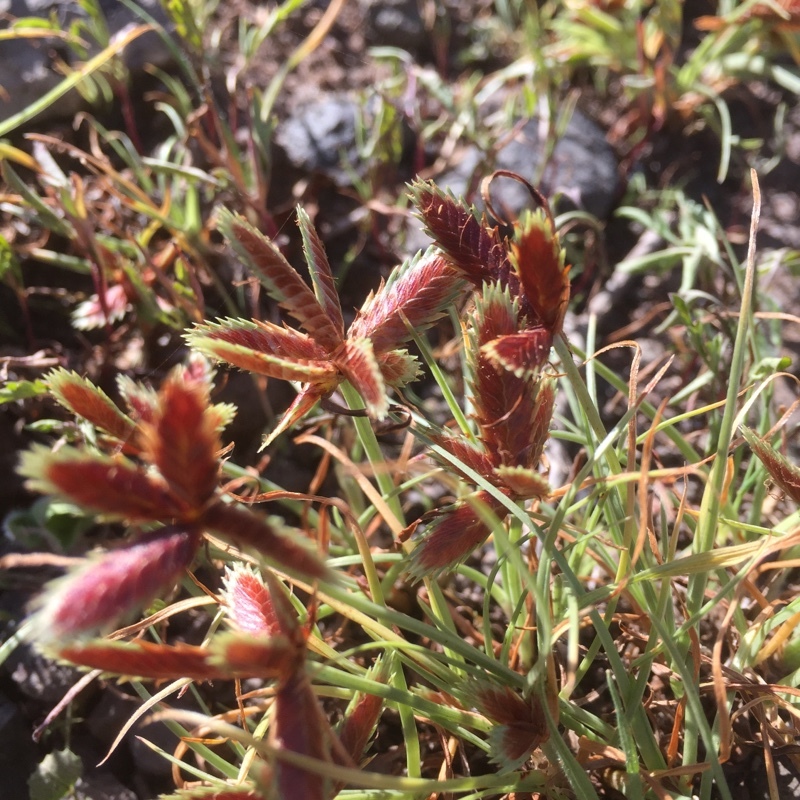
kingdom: Plantae
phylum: Tracheophyta
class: Liliopsida
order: Poales
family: Cyperaceae
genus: Cyperus
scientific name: Cyperus rubicundus
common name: Coco-grass
